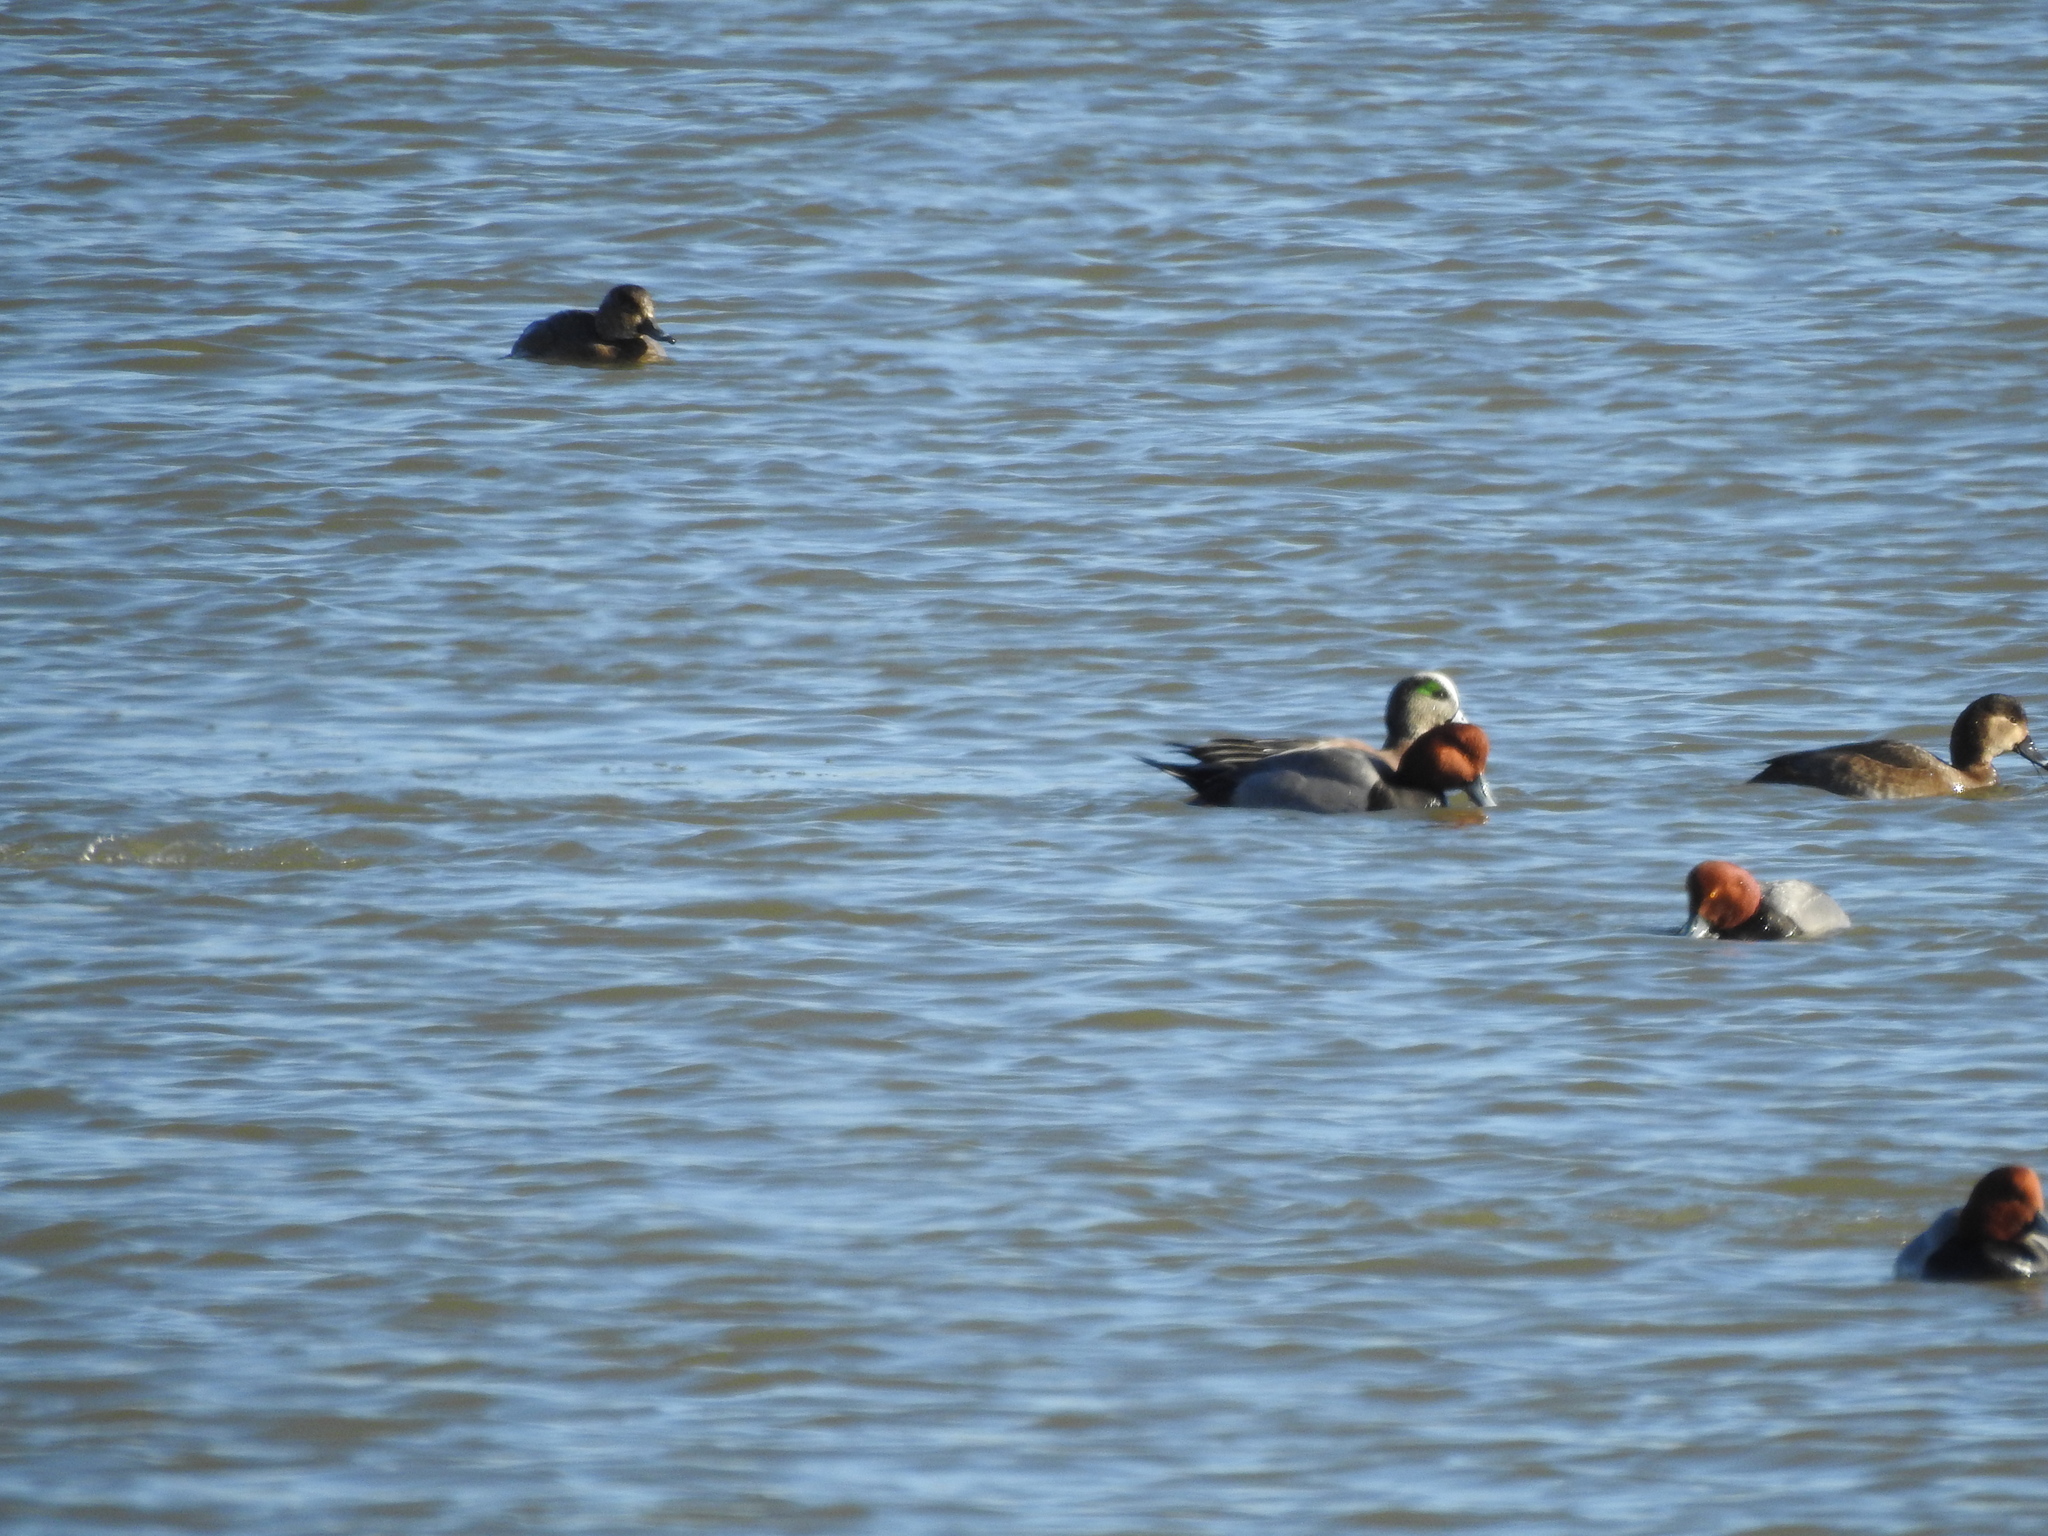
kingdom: Animalia
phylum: Chordata
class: Aves
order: Anseriformes
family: Anatidae
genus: Mareca
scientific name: Mareca americana
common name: American wigeon
